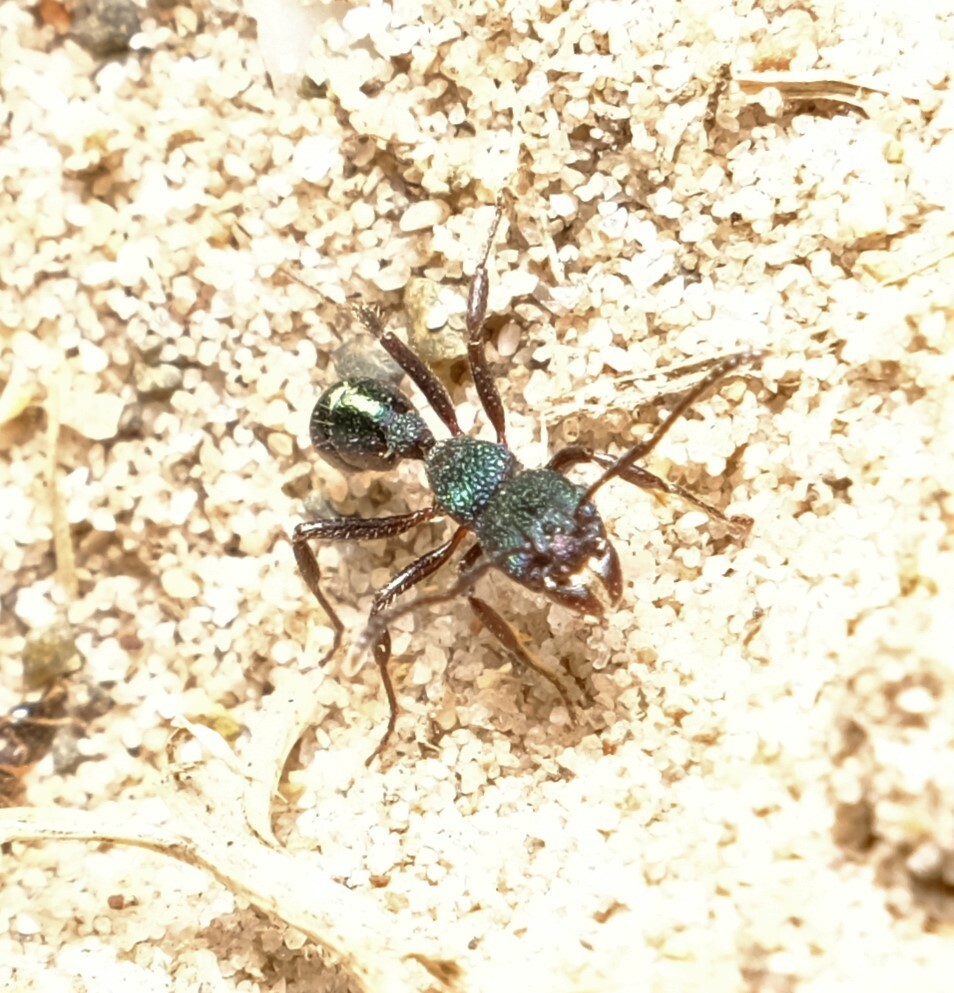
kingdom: Animalia
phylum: Arthropoda
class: Insecta
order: Hymenoptera
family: Formicidae
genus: Rhytidoponera
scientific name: Rhytidoponera metallica
